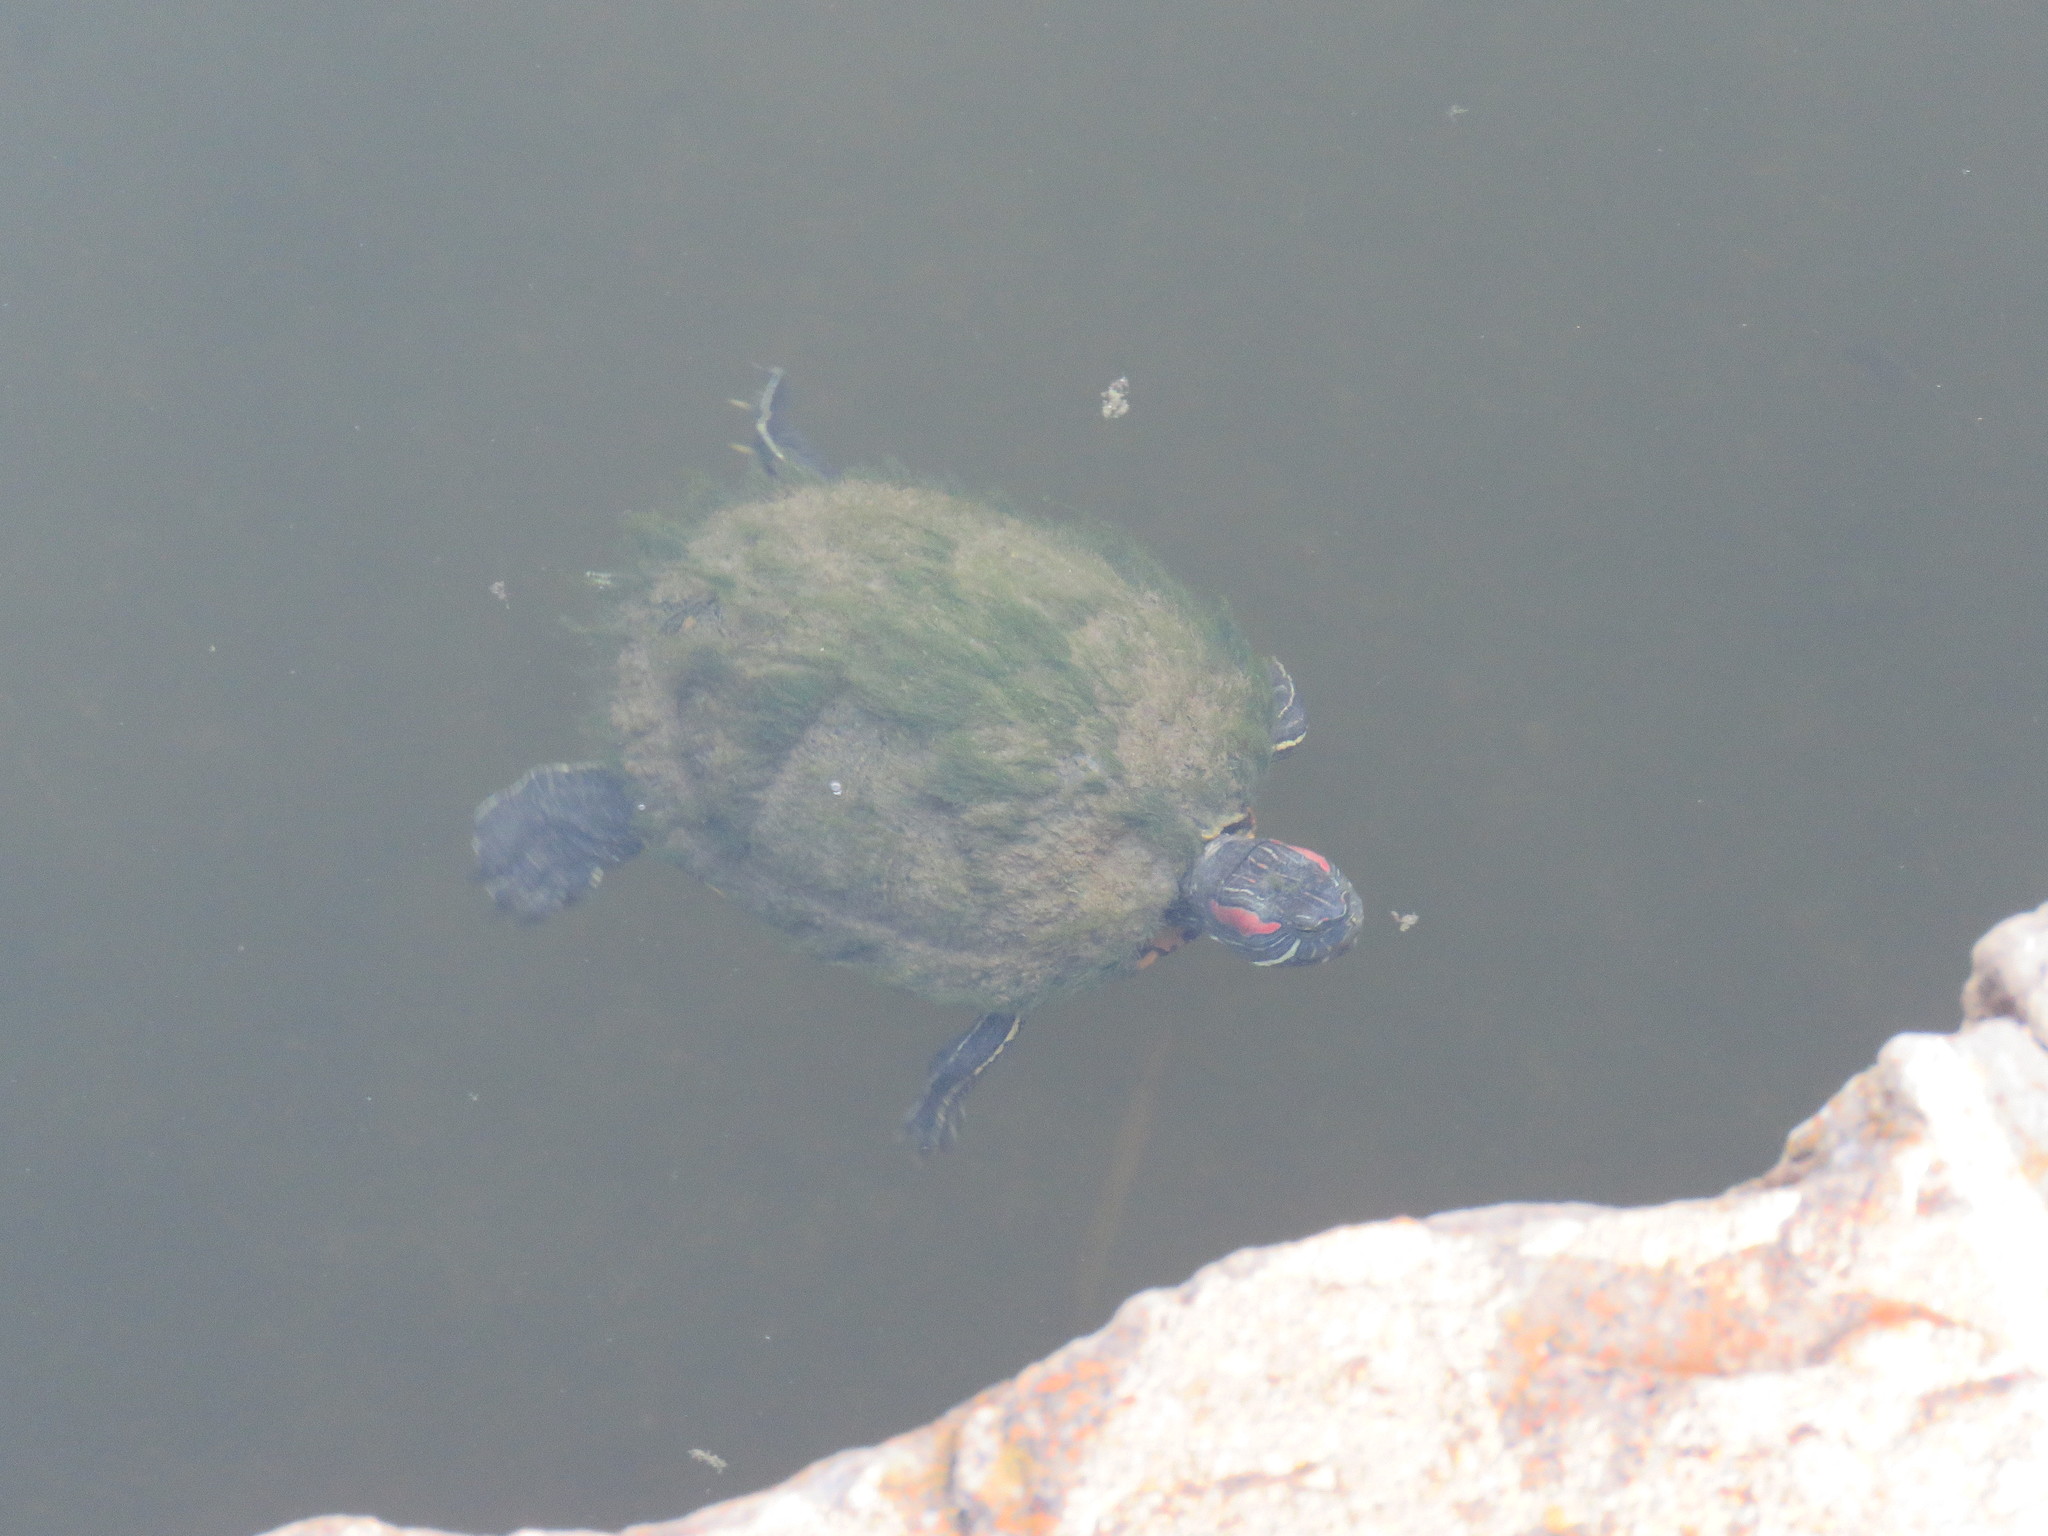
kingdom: Animalia
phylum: Chordata
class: Testudines
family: Emydidae
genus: Trachemys
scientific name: Trachemys scripta
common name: Slider
